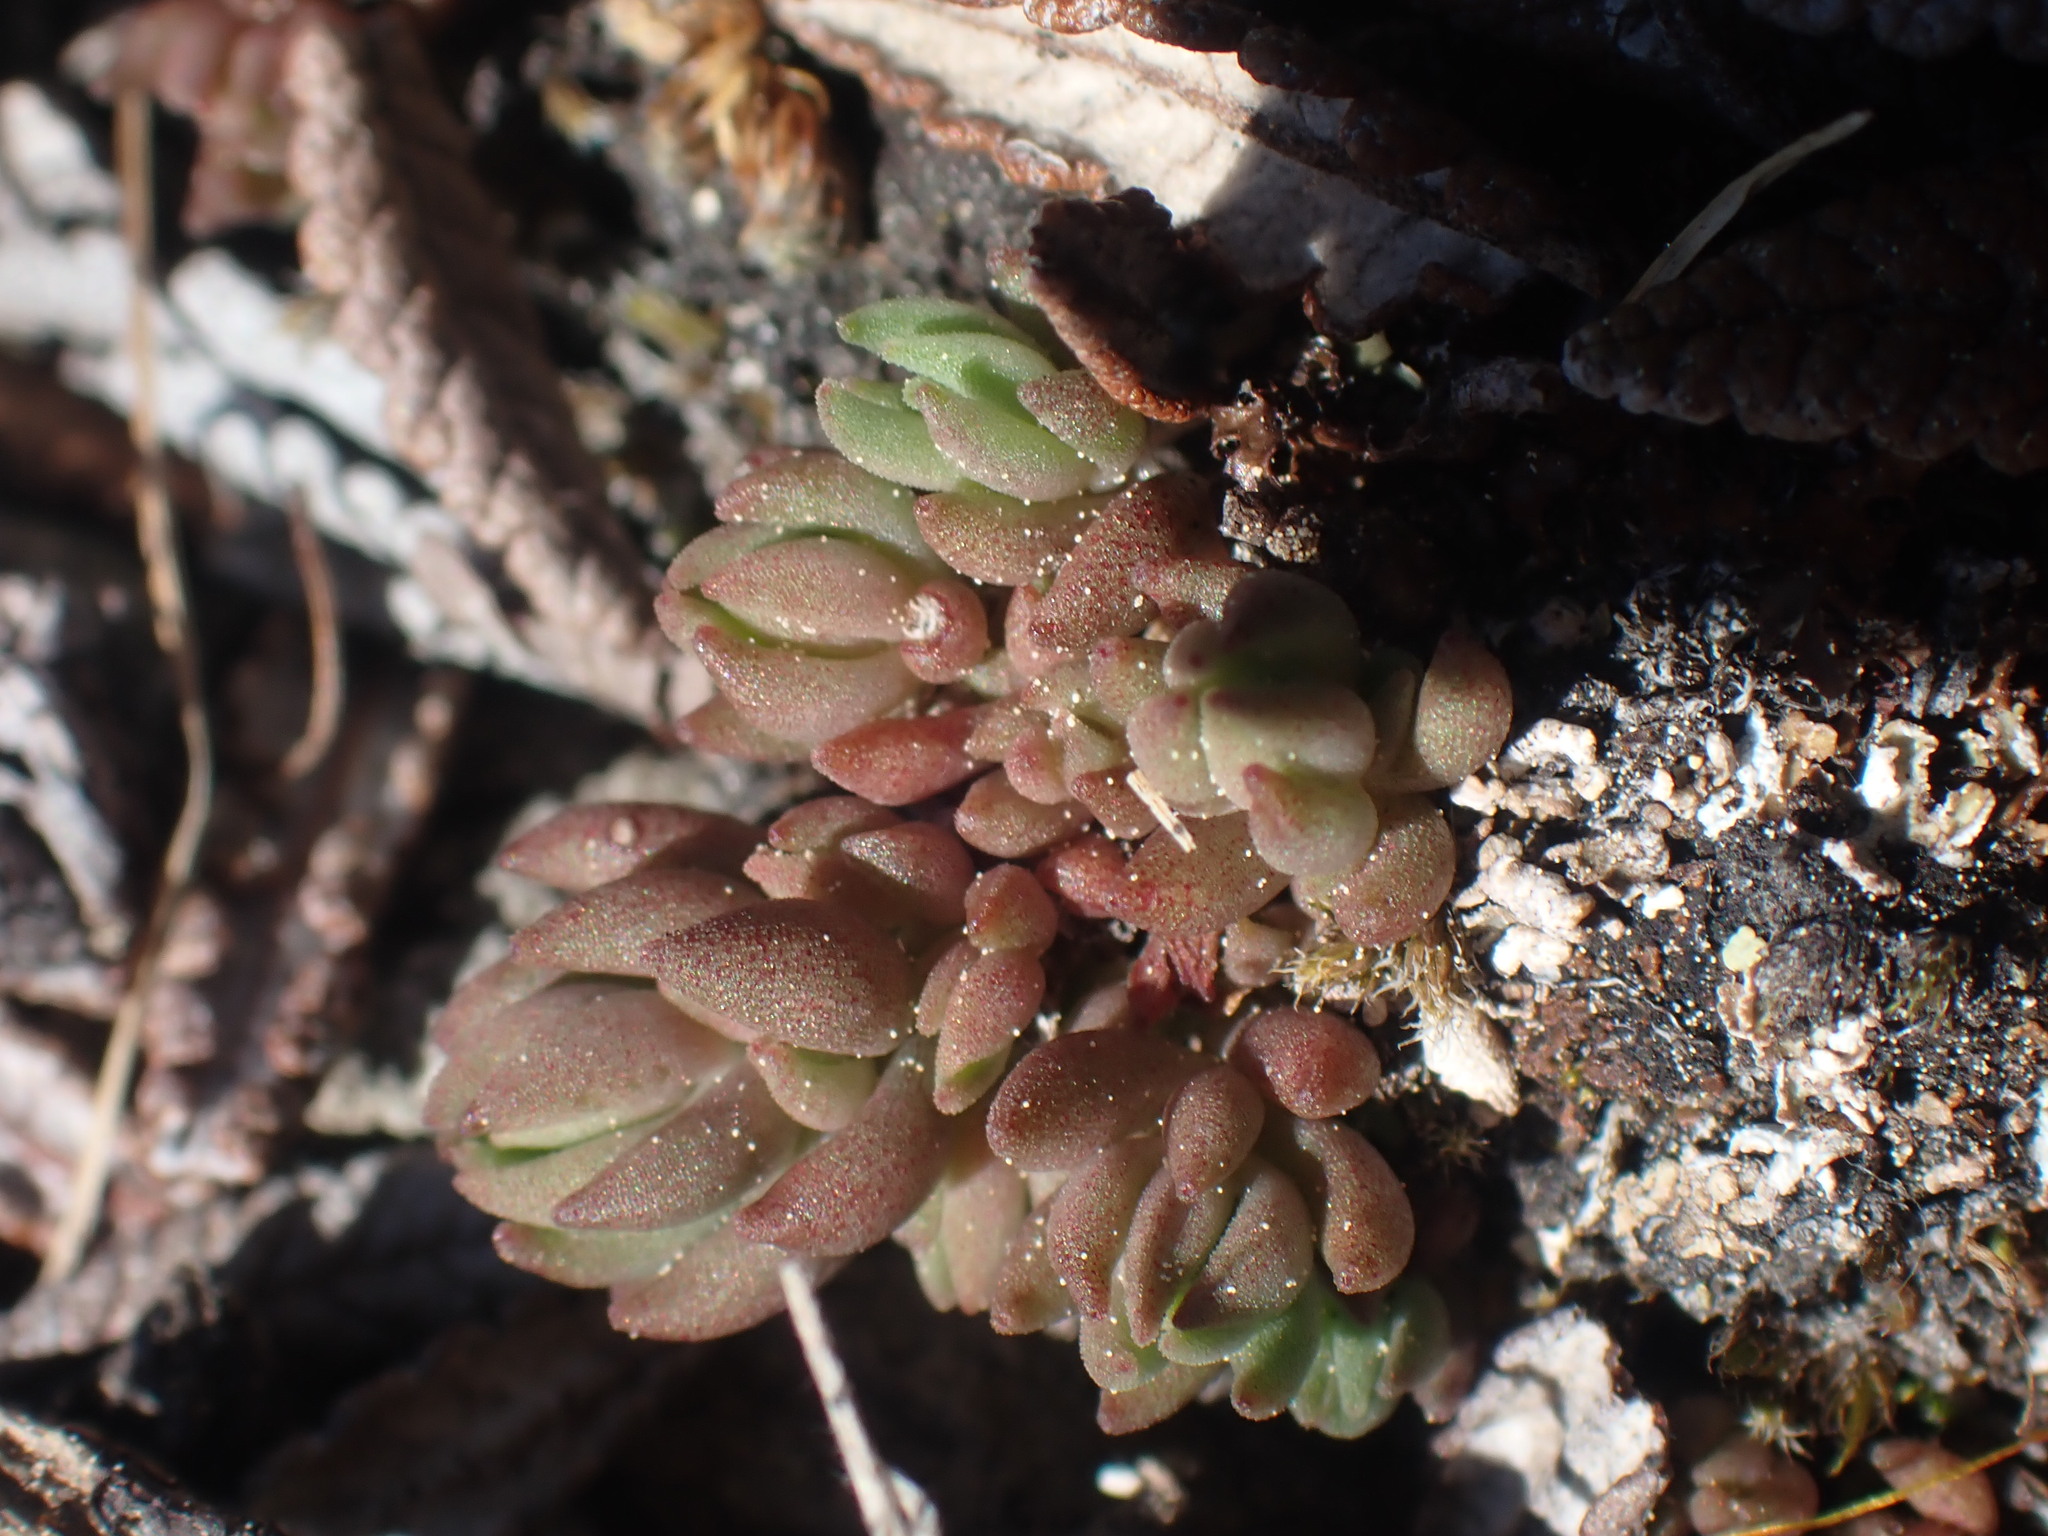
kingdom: Plantae
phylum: Tracheophyta
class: Magnoliopsida
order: Saxifragales
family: Crassulaceae
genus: Sedum
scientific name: Sedum lanceolatum
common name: Common stonecrop
